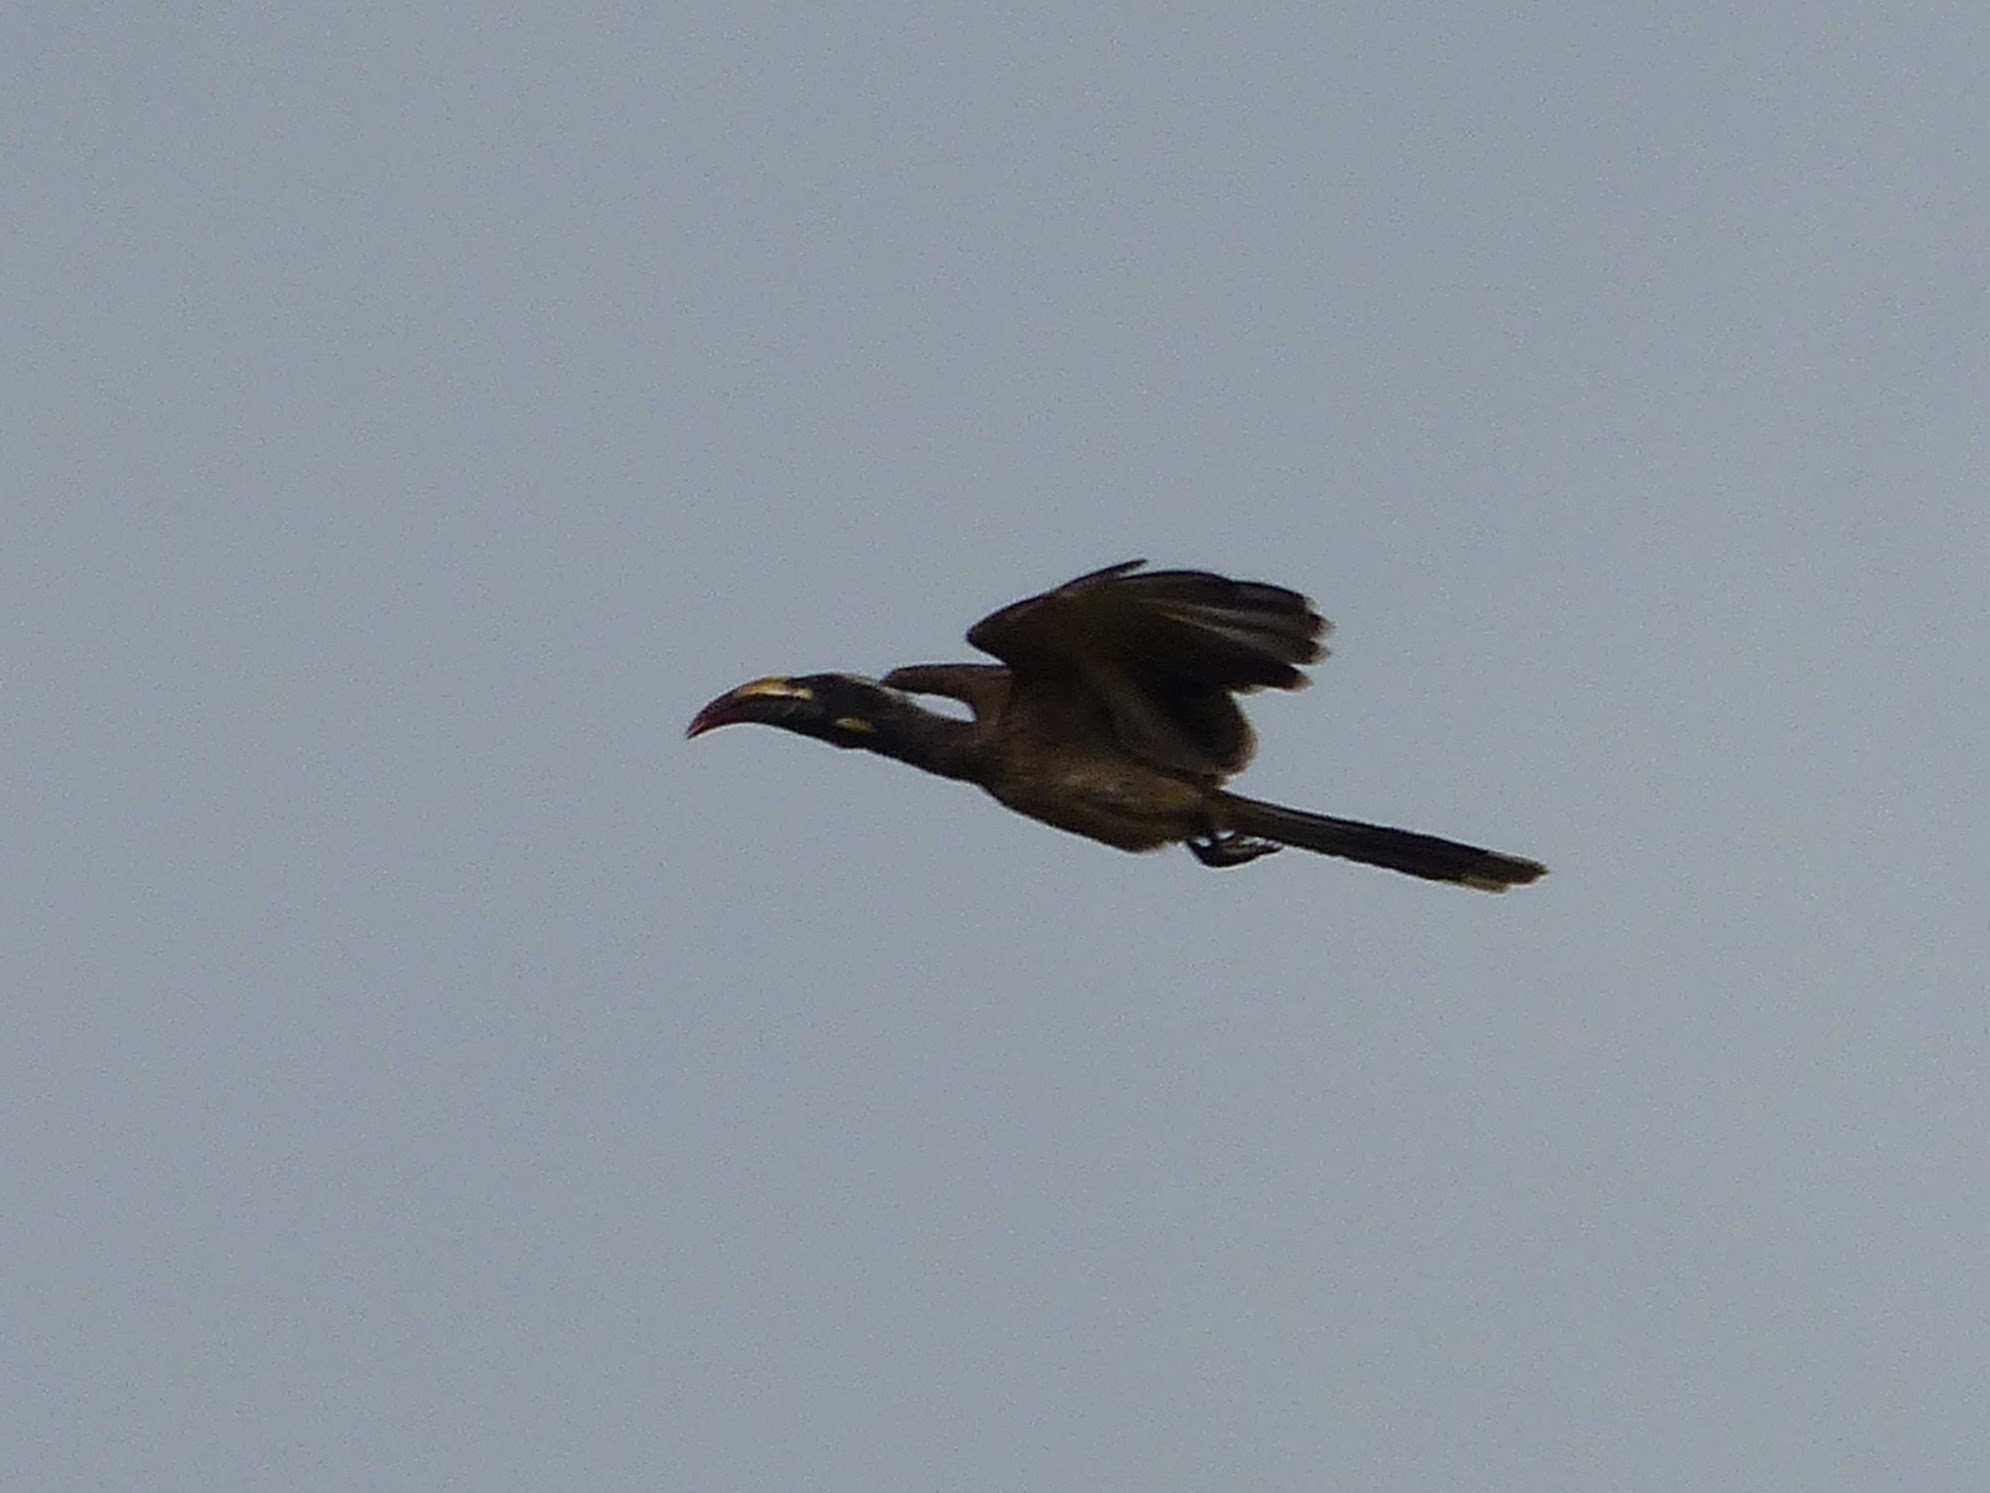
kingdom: Animalia
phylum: Chordata
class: Aves
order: Bucerotiformes
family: Bucerotidae
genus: Lophoceros
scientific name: Lophoceros nasutus
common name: African grey hornbill
